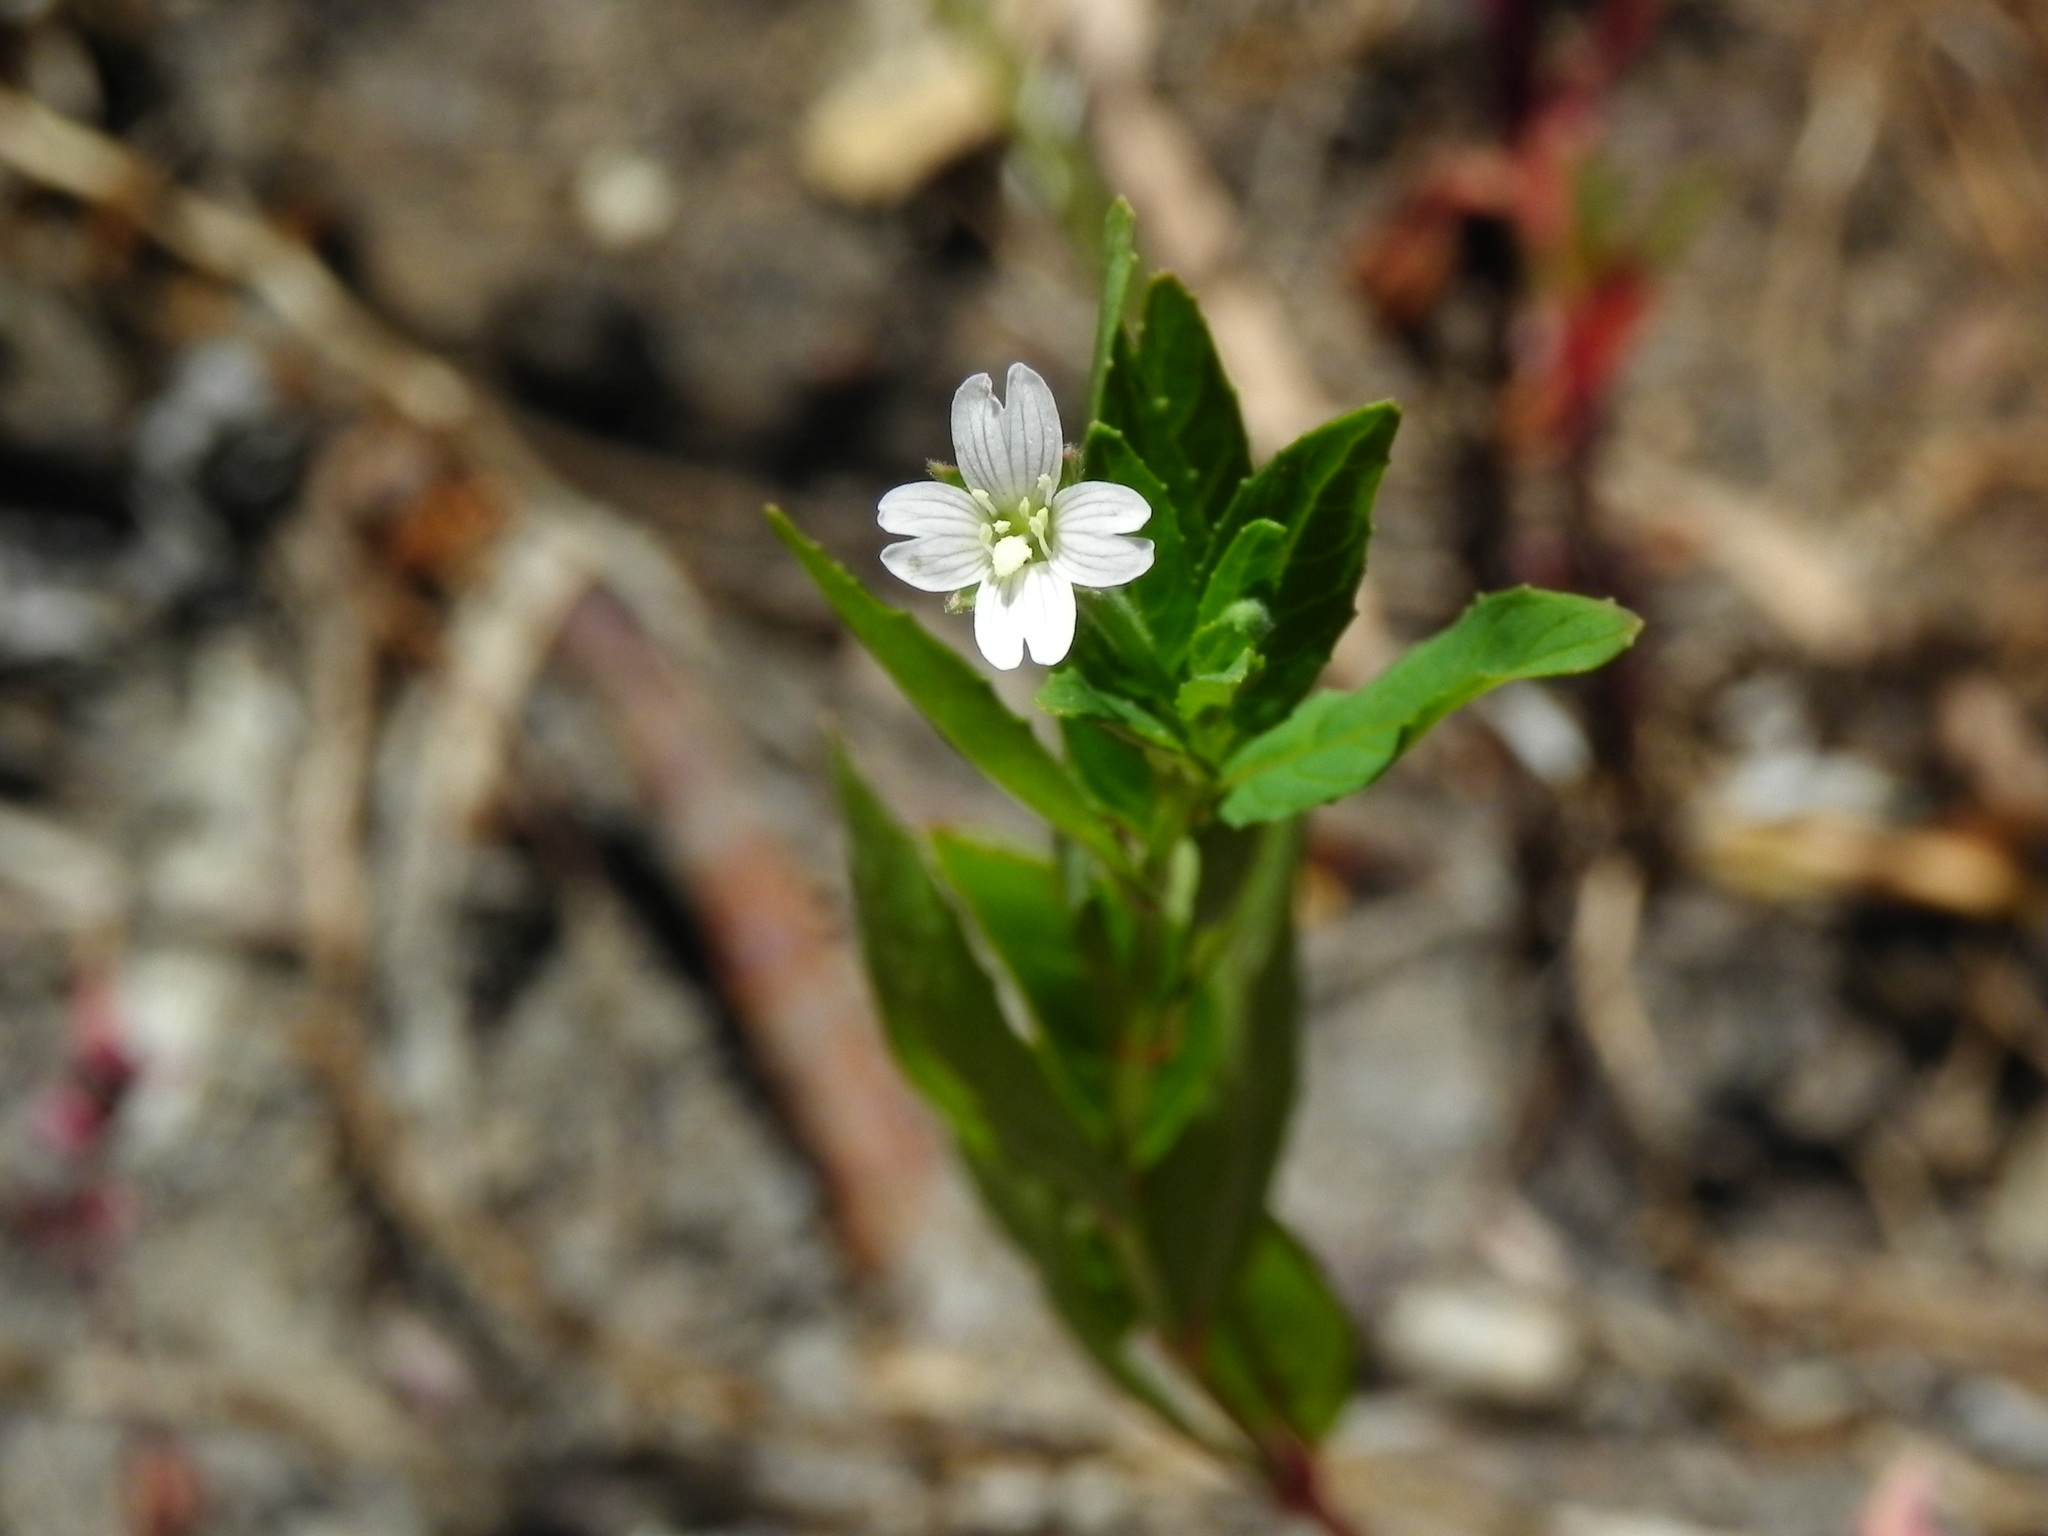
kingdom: Plantae
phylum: Tracheophyta
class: Magnoliopsida
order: Myrtales
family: Onagraceae
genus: Epilobium
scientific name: Epilobium ciliatum
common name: American willowherb
